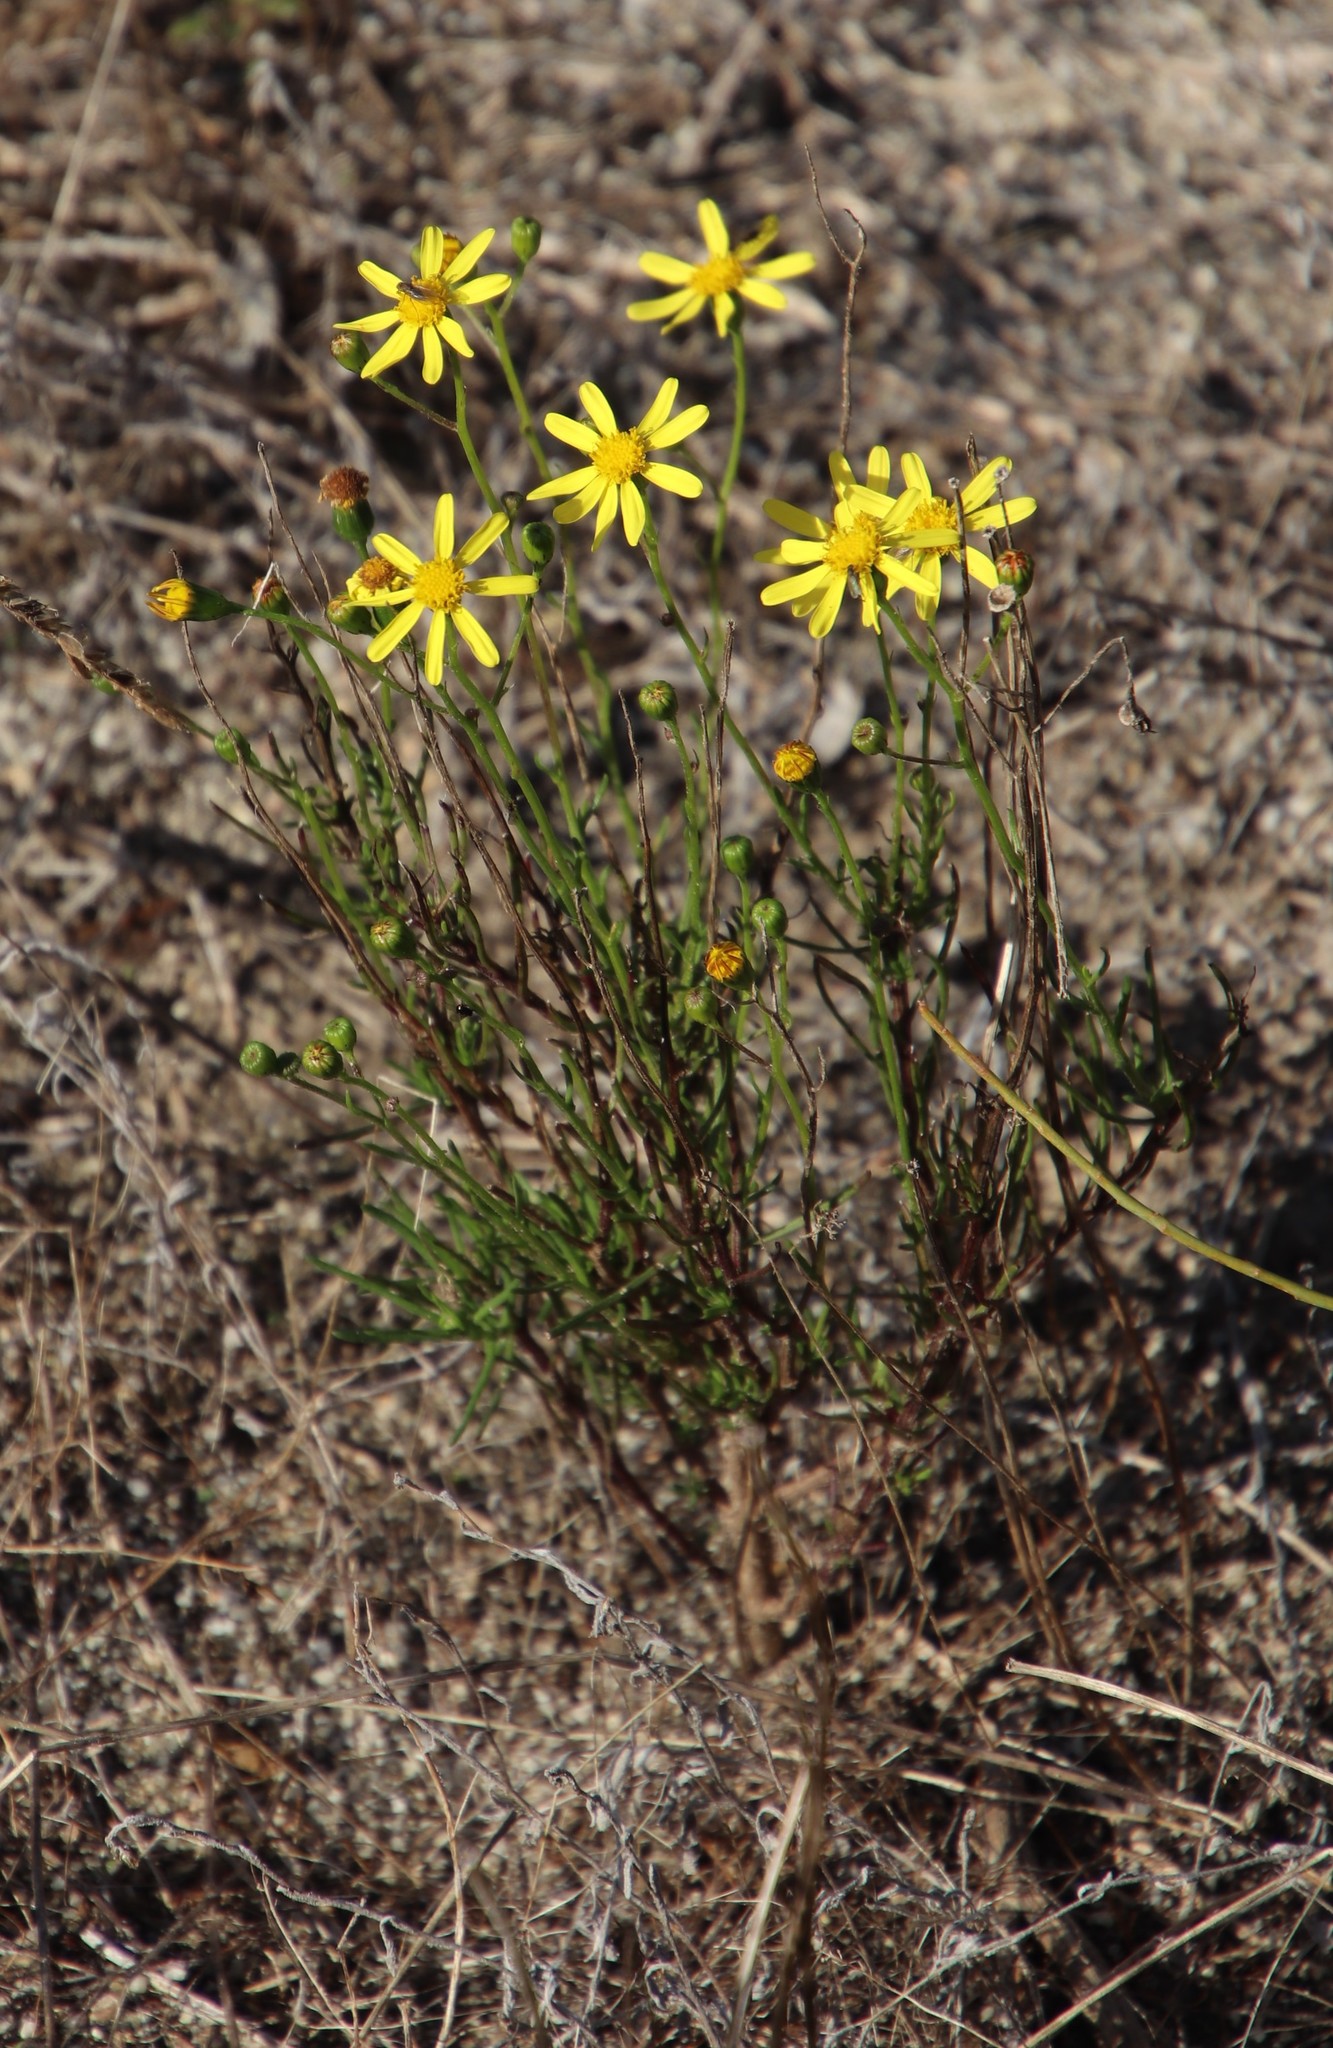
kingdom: Plantae
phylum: Tracheophyta
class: Magnoliopsida
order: Asterales
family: Asteraceae
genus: Senecio
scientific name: Senecio burchellii
